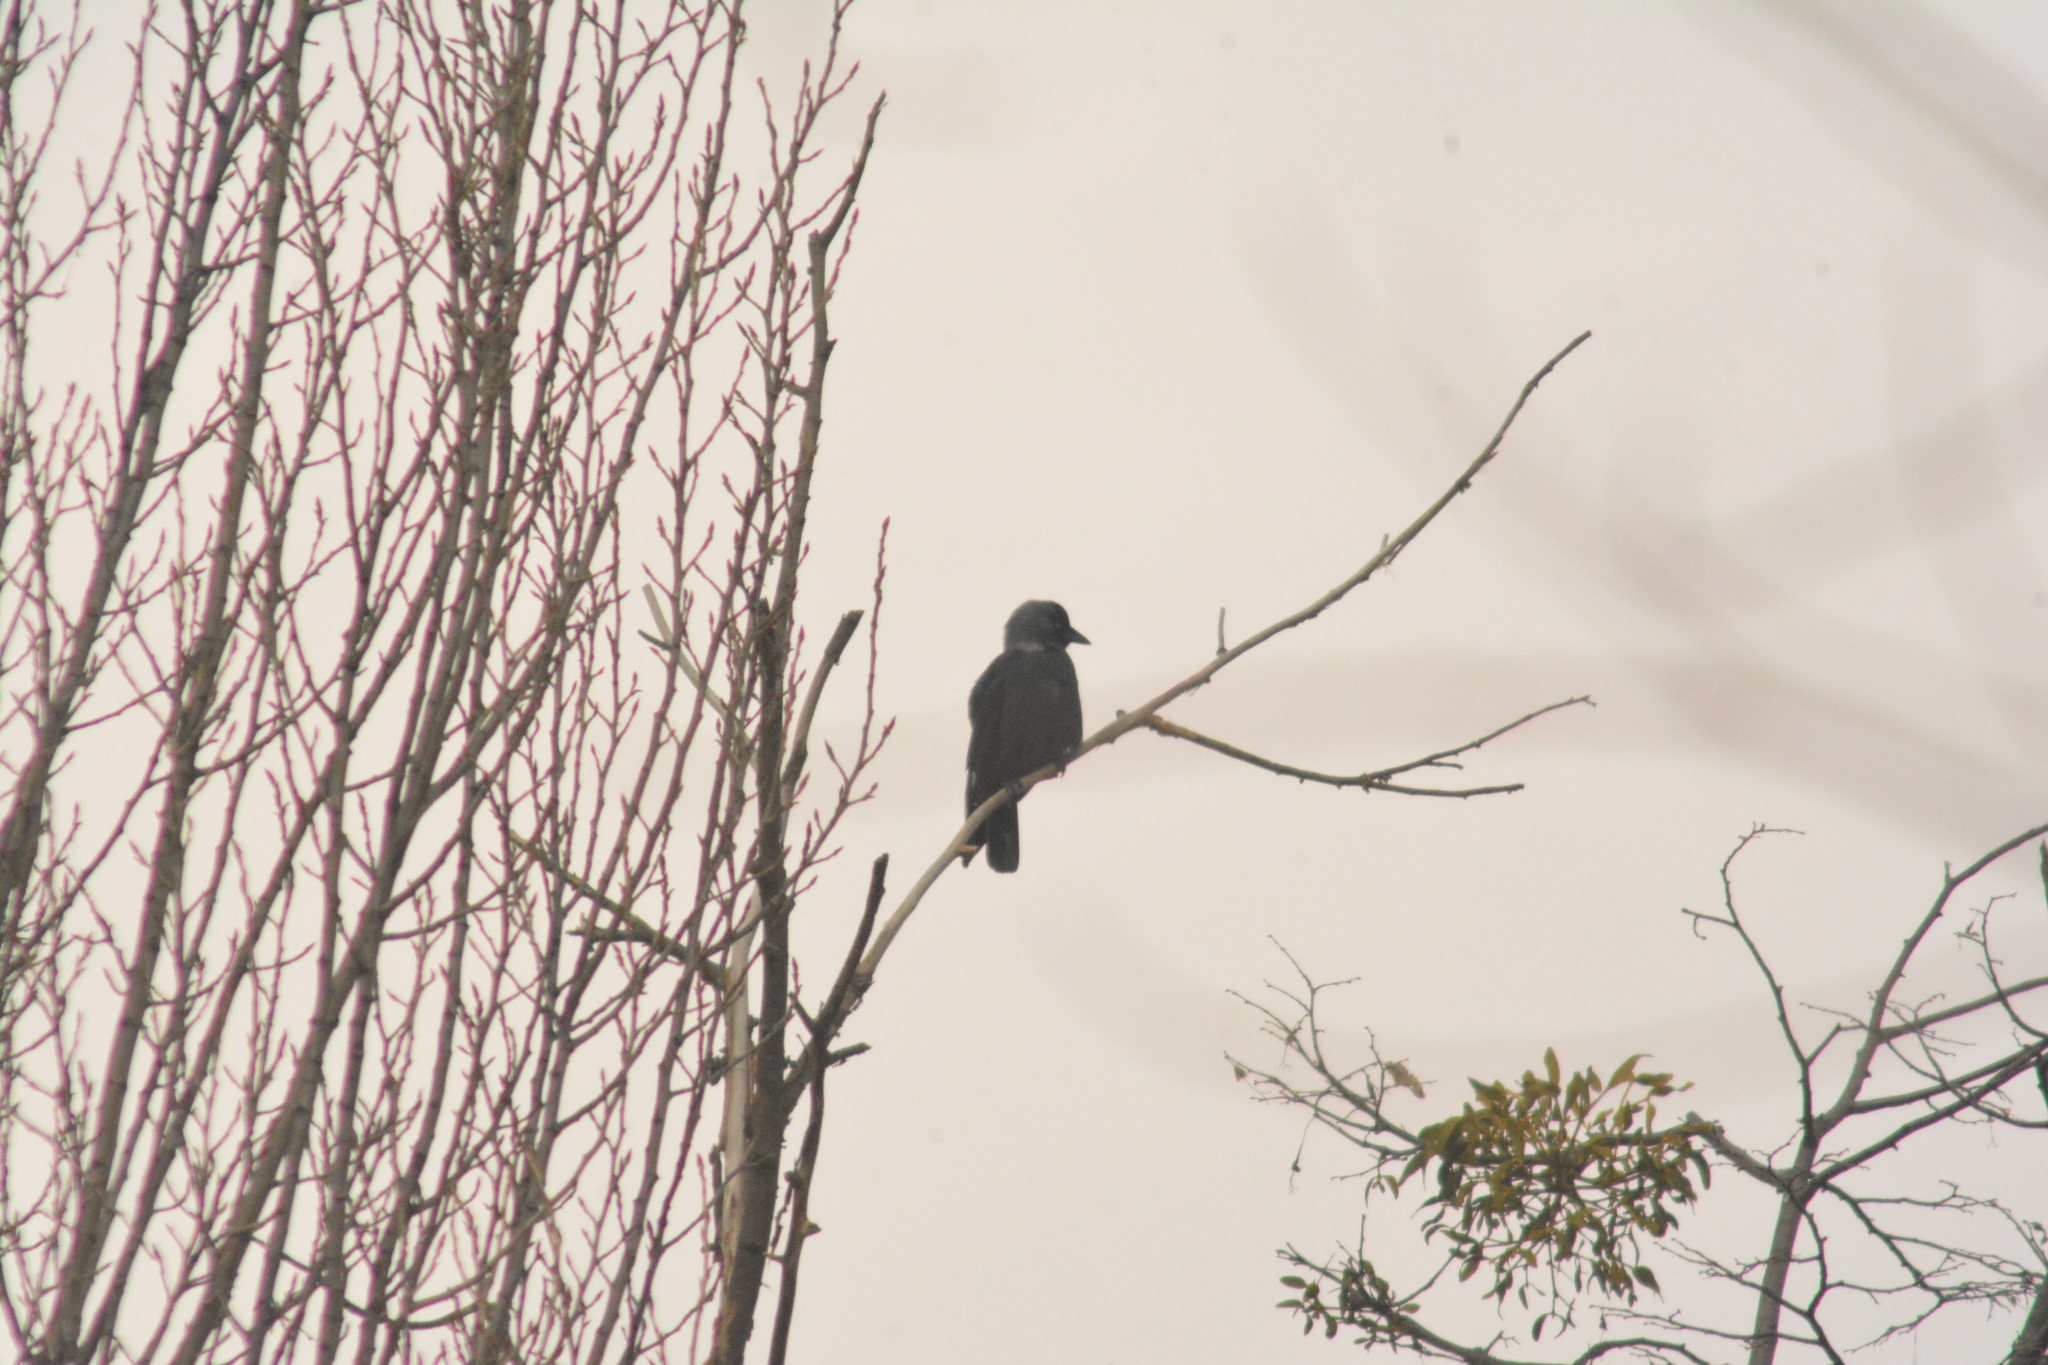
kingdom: Animalia
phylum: Chordata
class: Aves
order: Passeriformes
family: Corvidae
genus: Coloeus
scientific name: Coloeus monedula
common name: Western jackdaw
